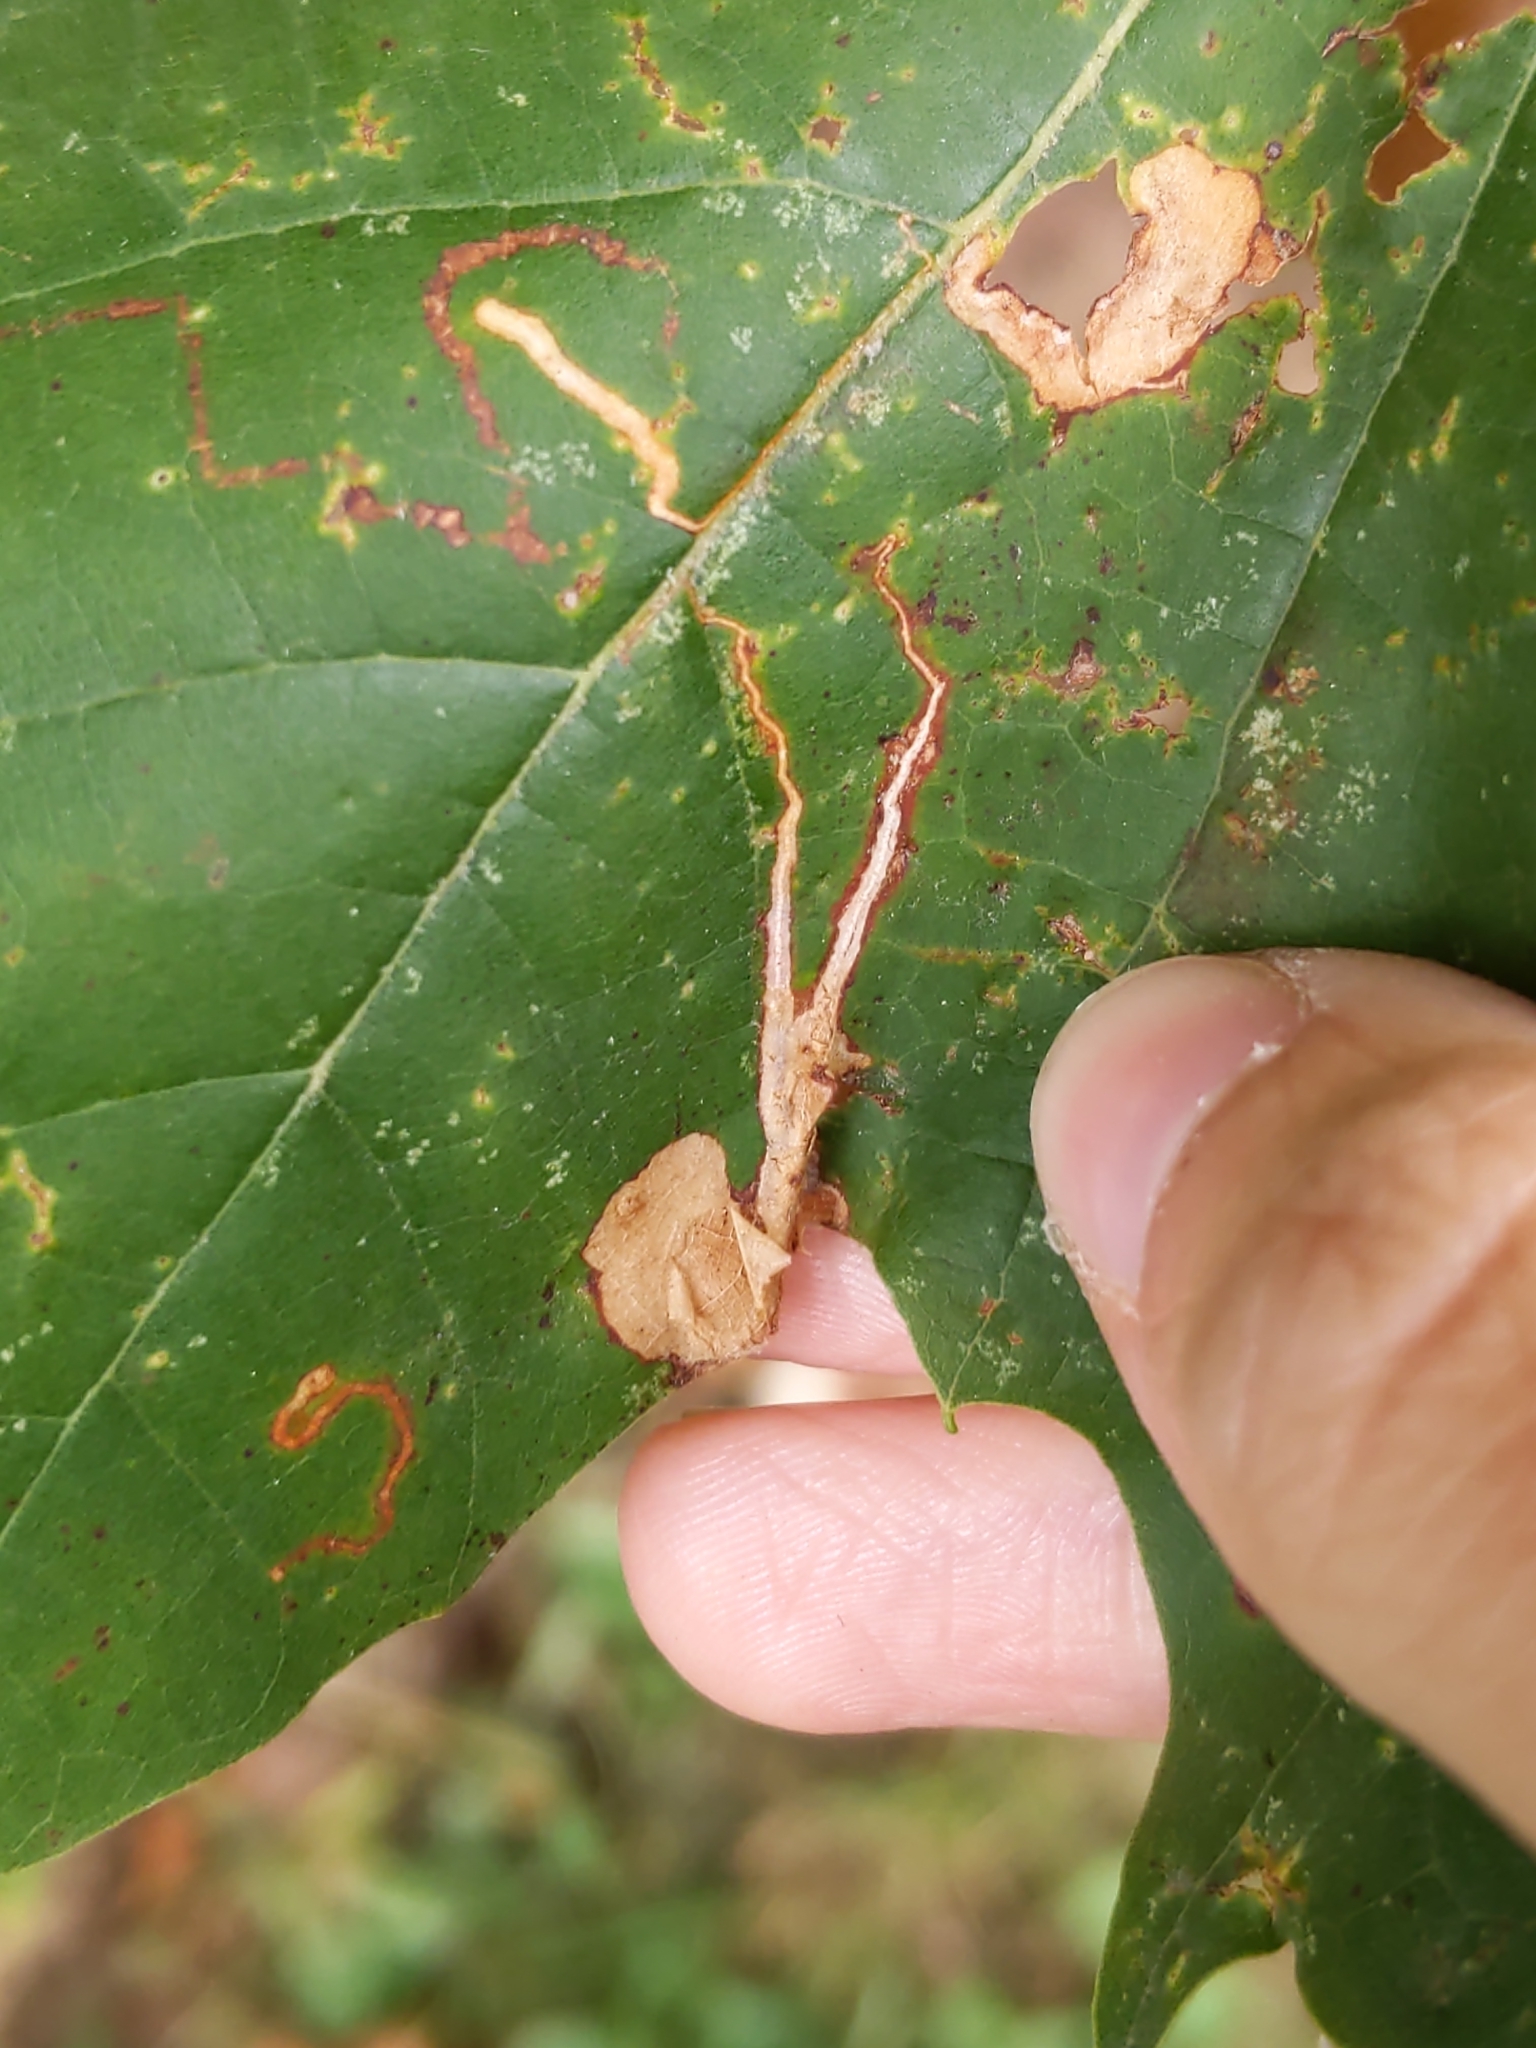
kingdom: Animalia
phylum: Arthropoda
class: Insecta
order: Lepidoptera
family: Nepticulidae
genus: Ectoedemia
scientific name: Ectoedemia clemensella
